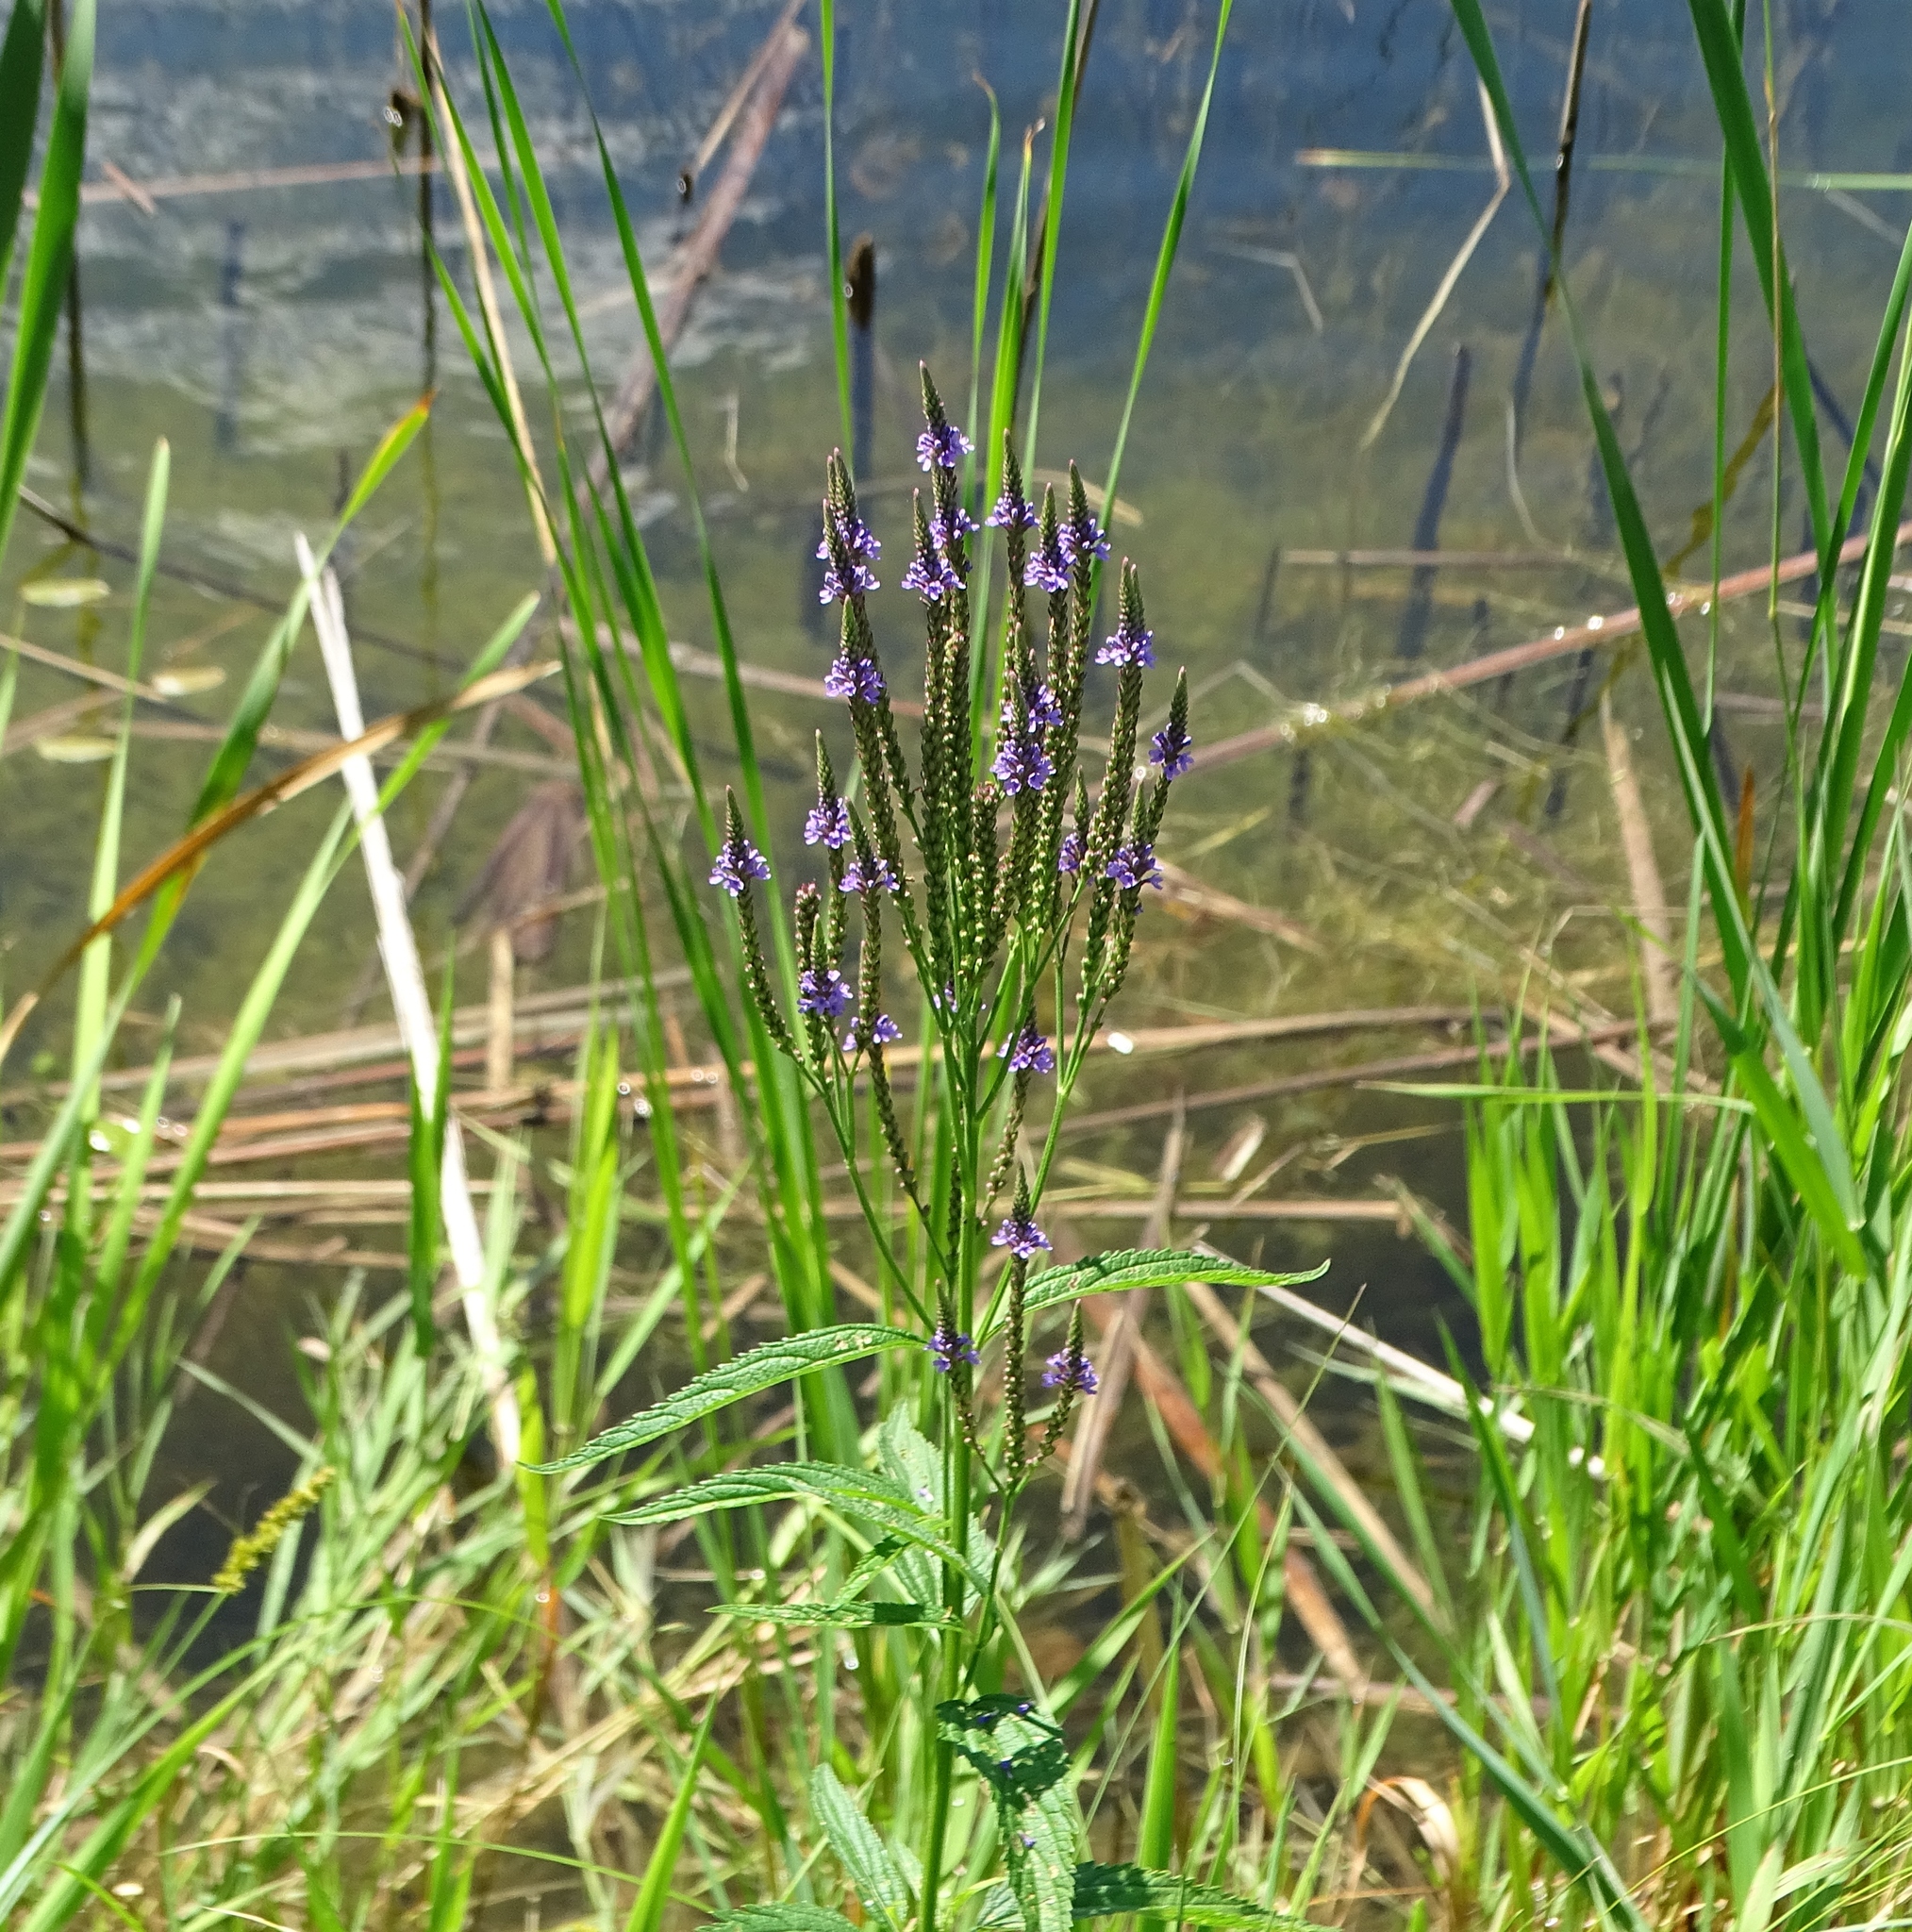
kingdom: Plantae
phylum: Tracheophyta
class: Magnoliopsida
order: Lamiales
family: Verbenaceae
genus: Verbena
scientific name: Verbena hastata
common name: American blue vervain
